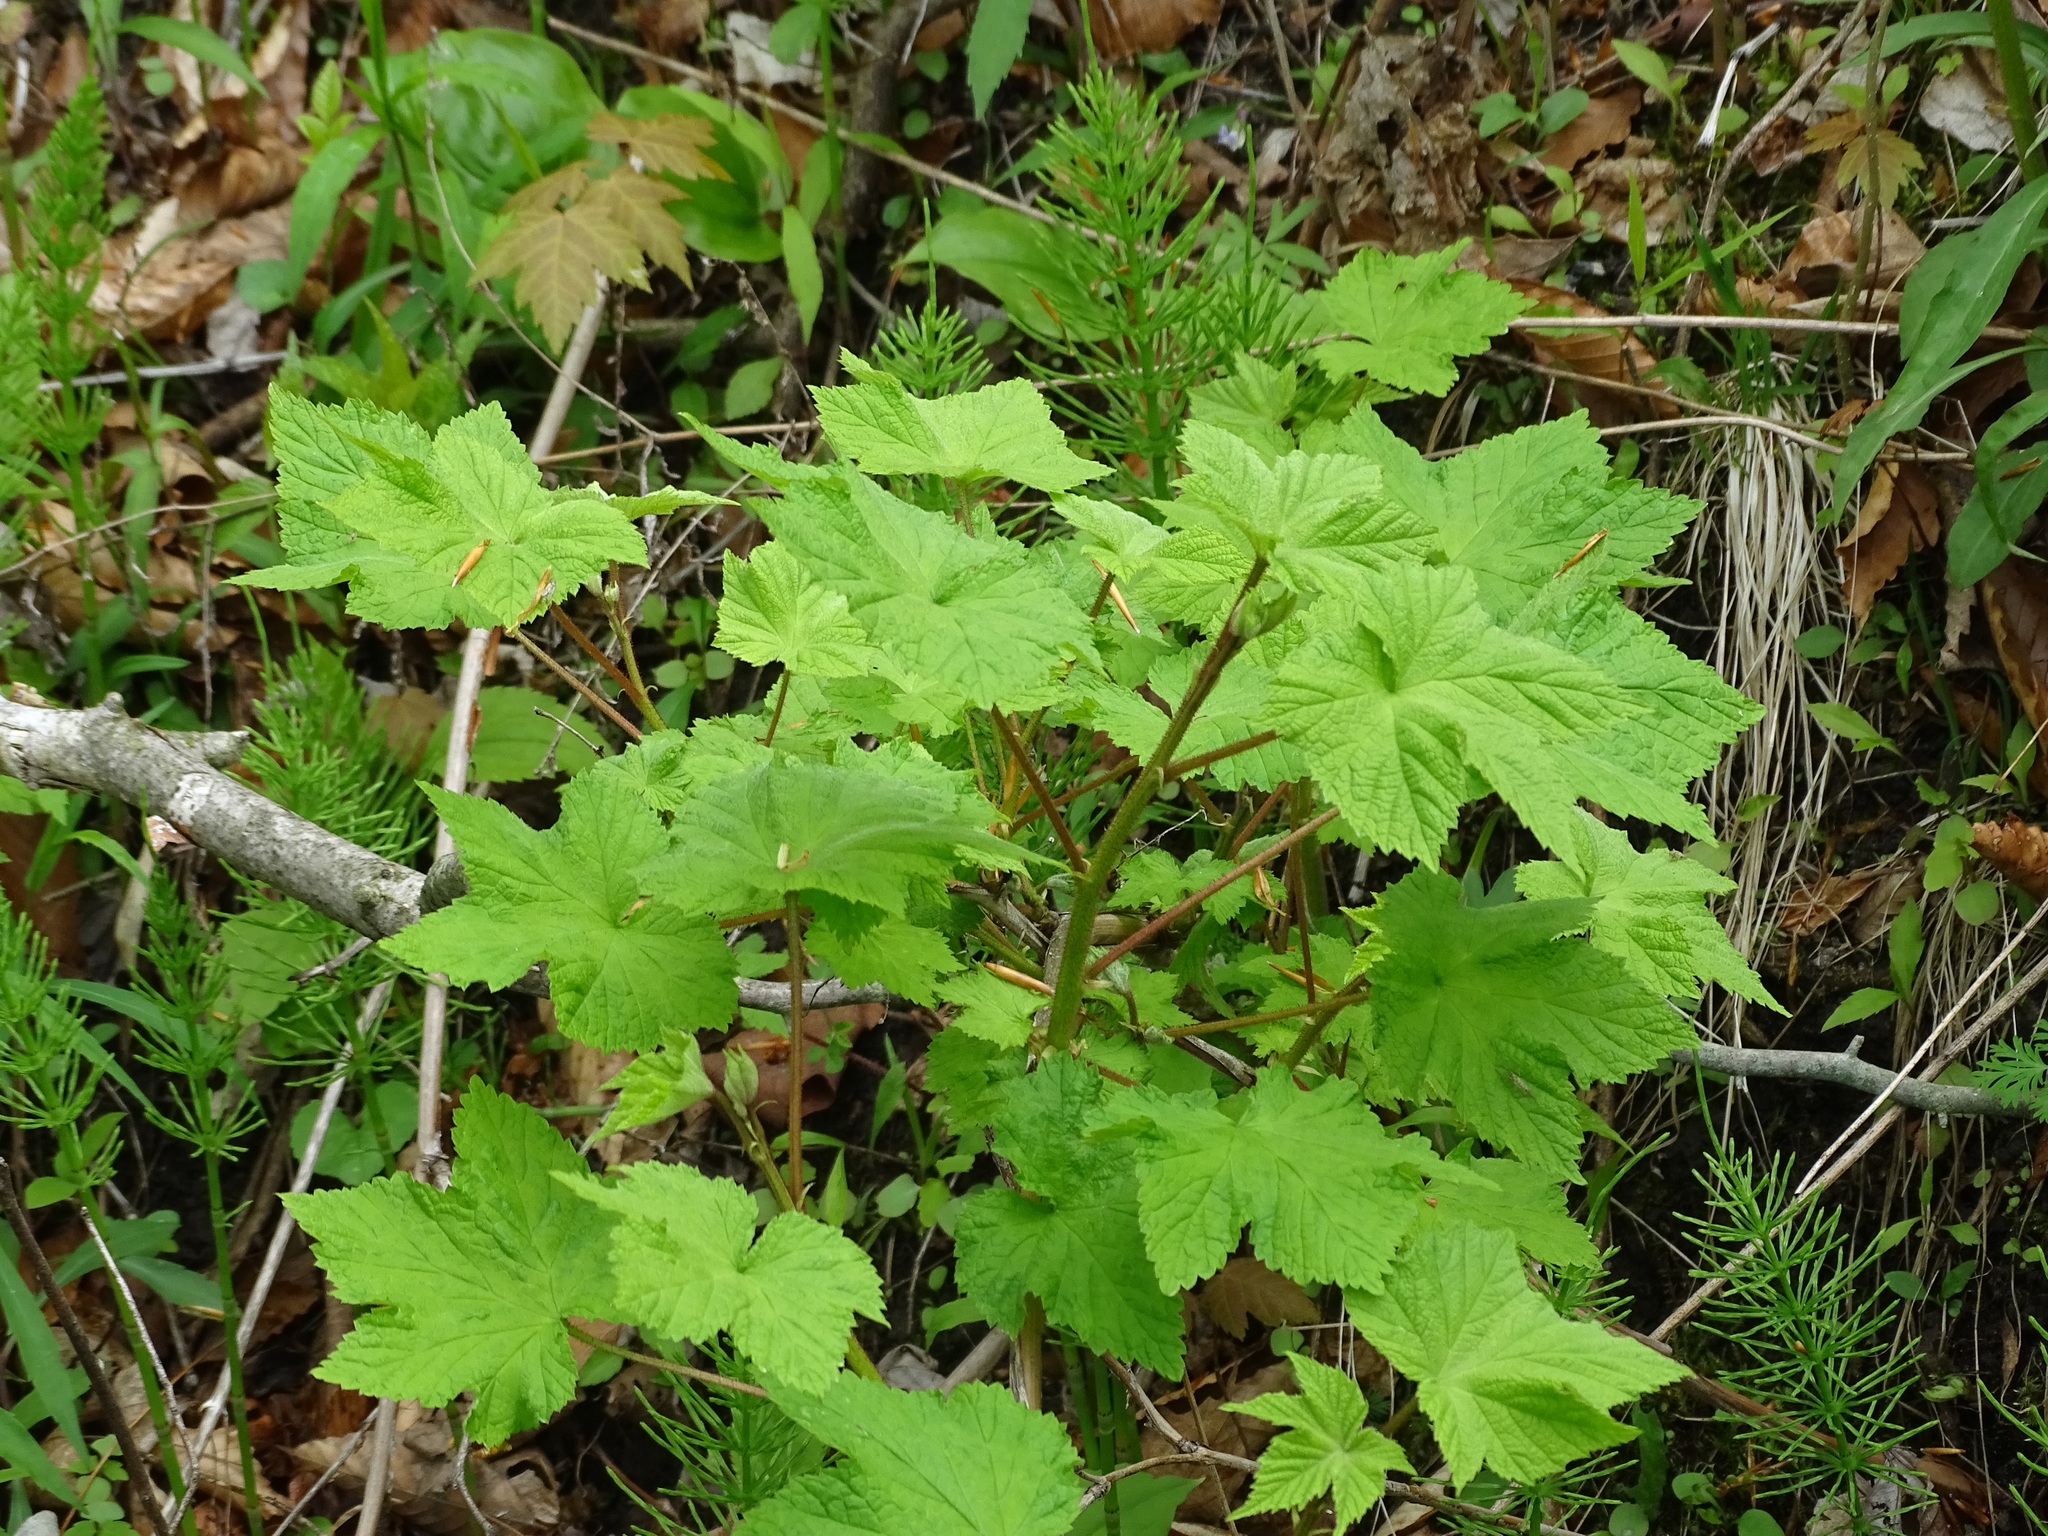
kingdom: Plantae
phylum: Tracheophyta
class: Magnoliopsida
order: Rosales
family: Rosaceae
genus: Rubus
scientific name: Rubus odoratus
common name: Purple-flowered raspberry
